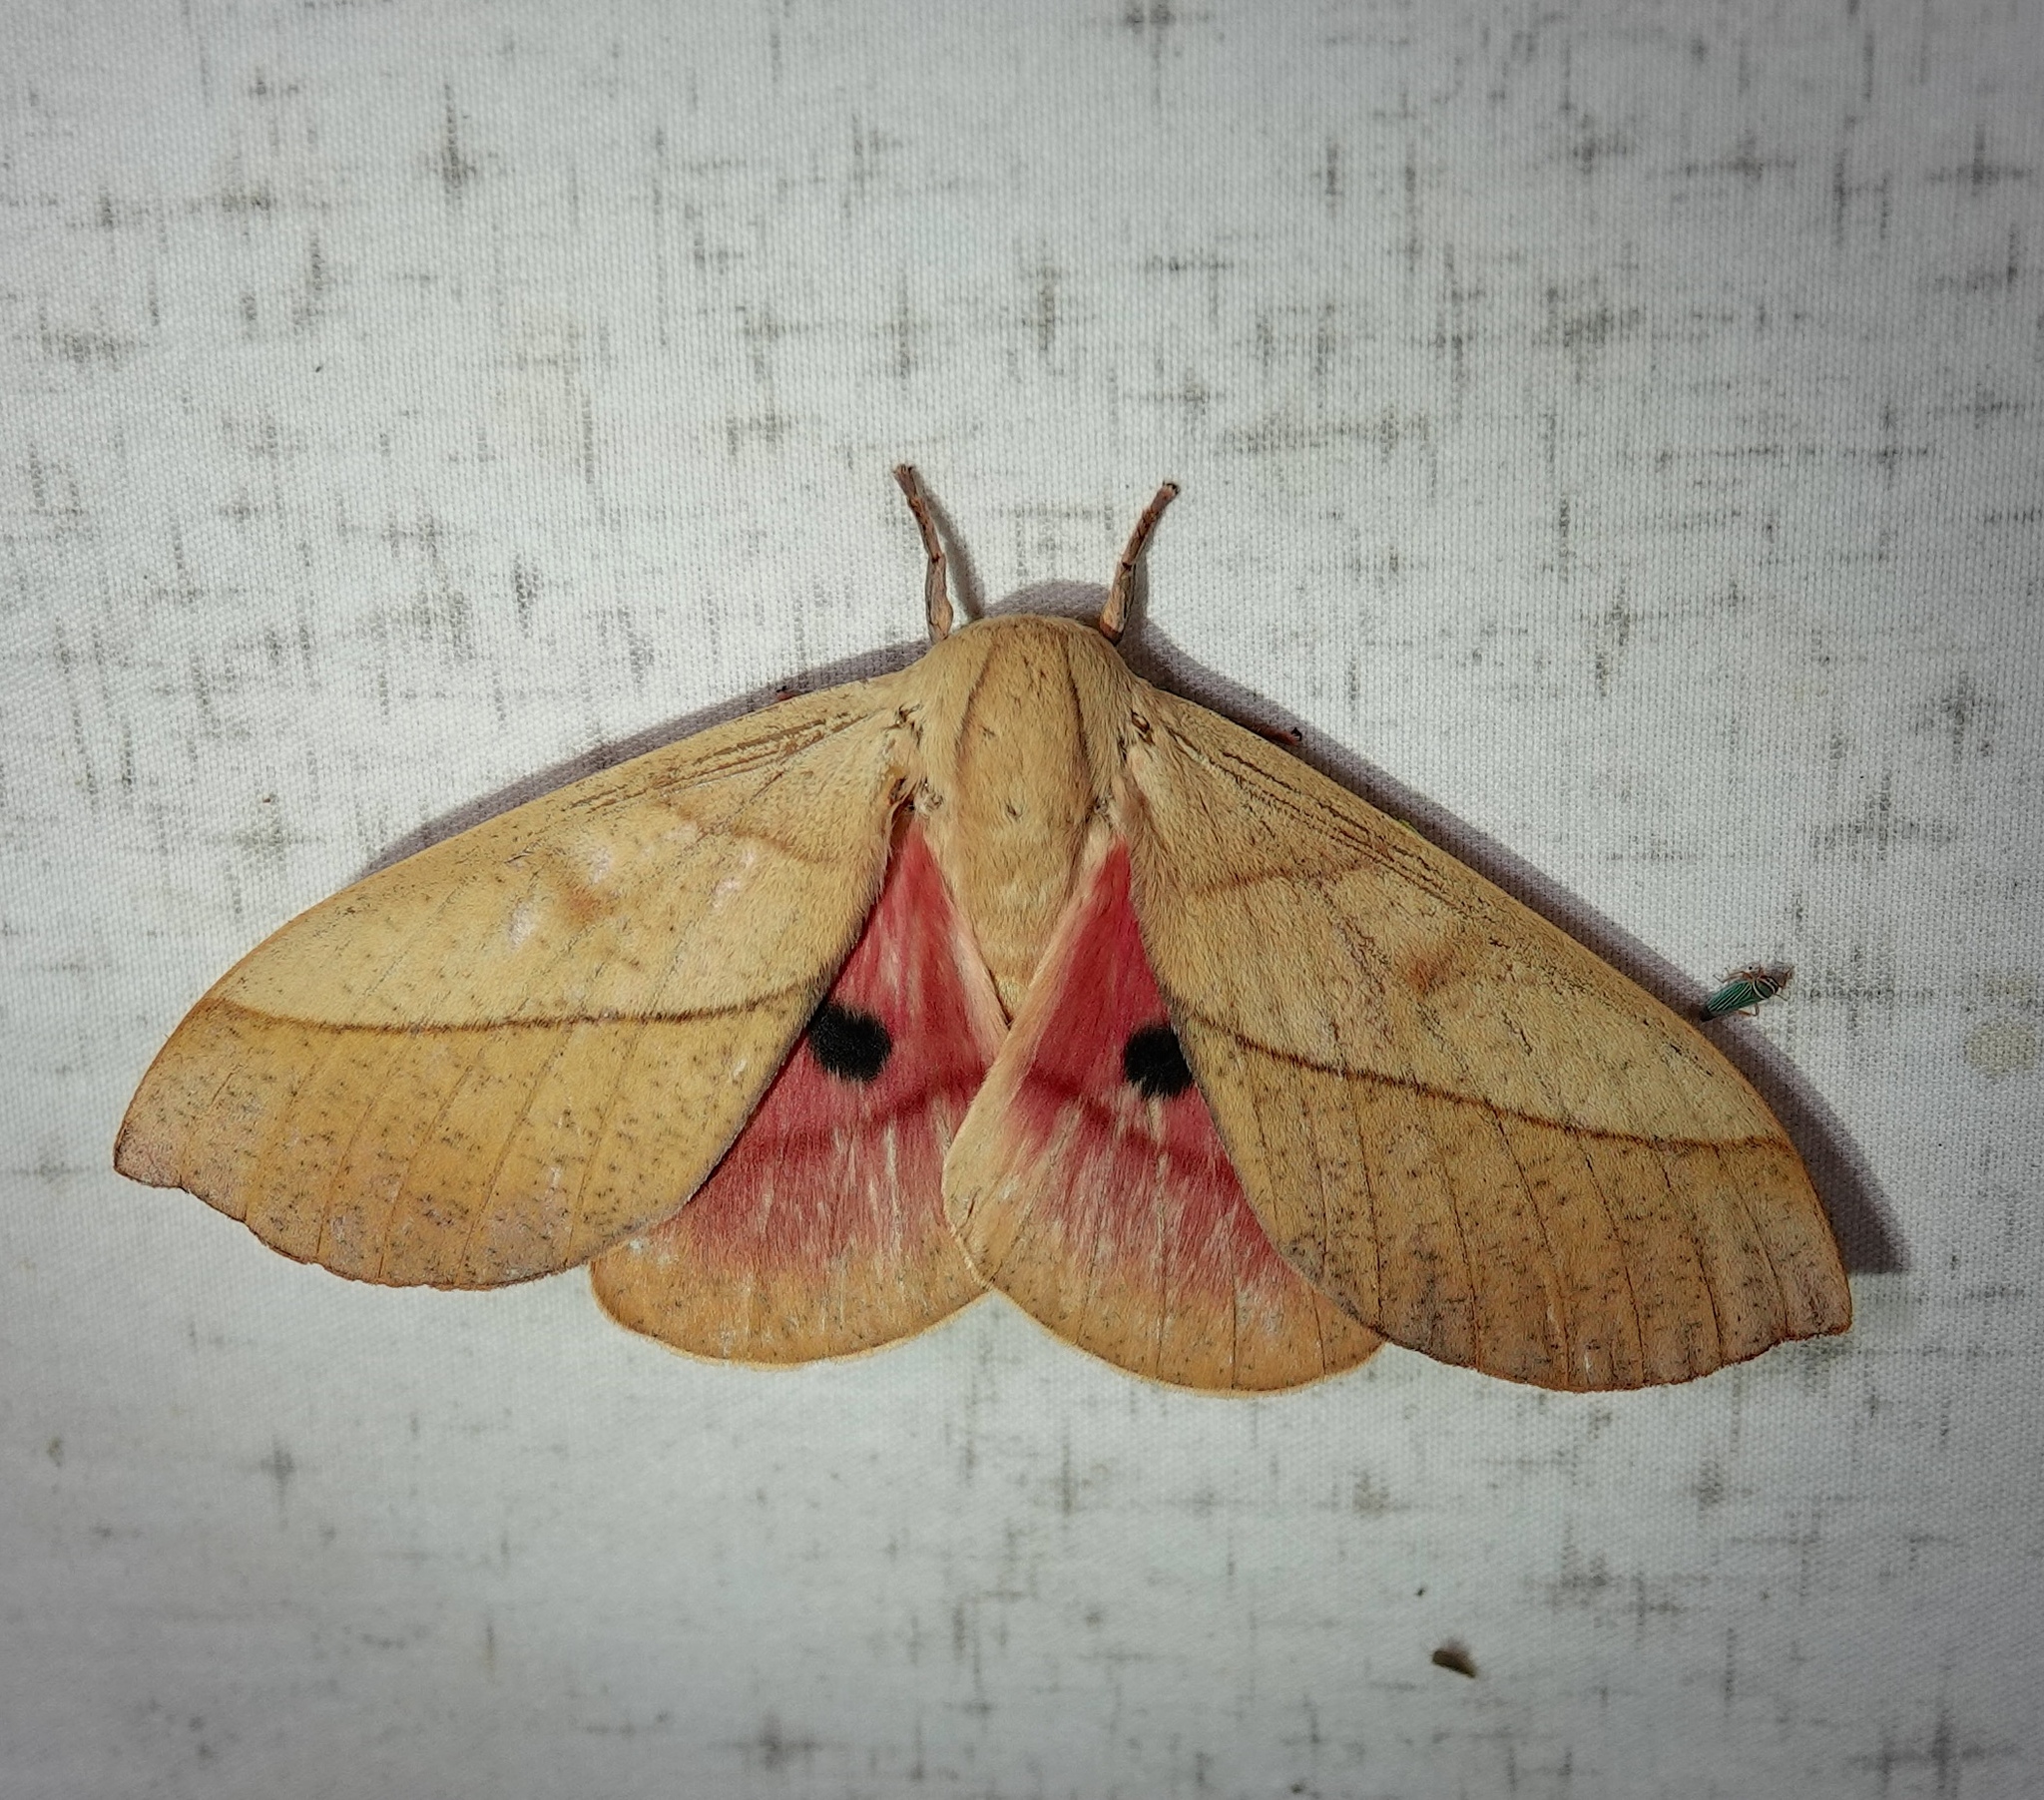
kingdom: Animalia
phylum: Arthropoda
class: Insecta
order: Lepidoptera
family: Saturniidae
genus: Syssphinx
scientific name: Syssphinx molina
